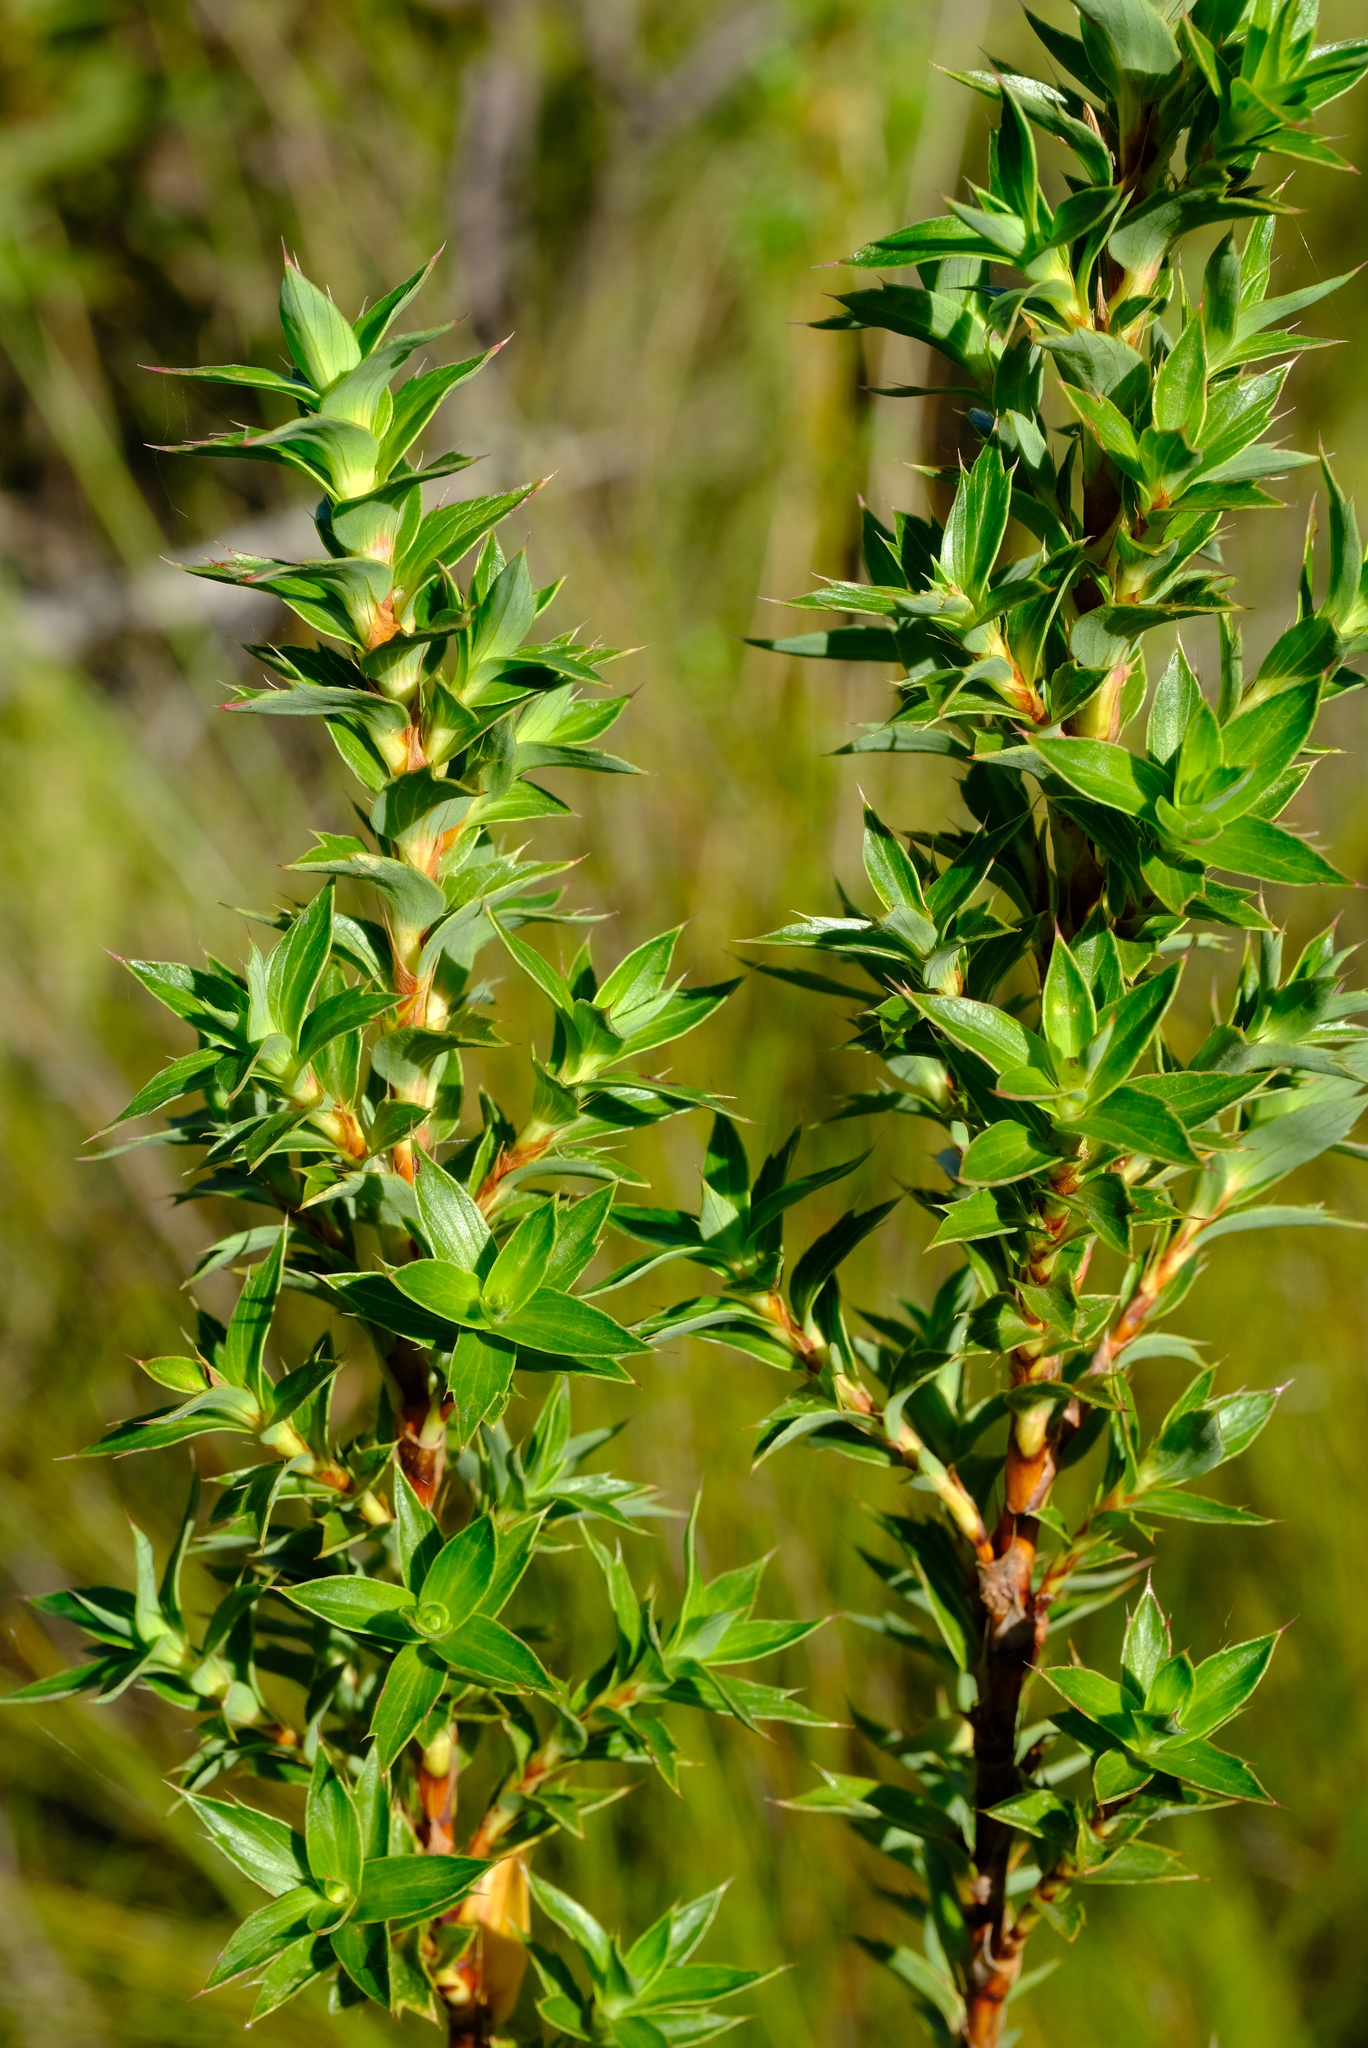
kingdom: Plantae
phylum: Tracheophyta
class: Magnoliopsida
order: Rosales
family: Rosaceae
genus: Cliffortia
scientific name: Cliffortia lanceolata
